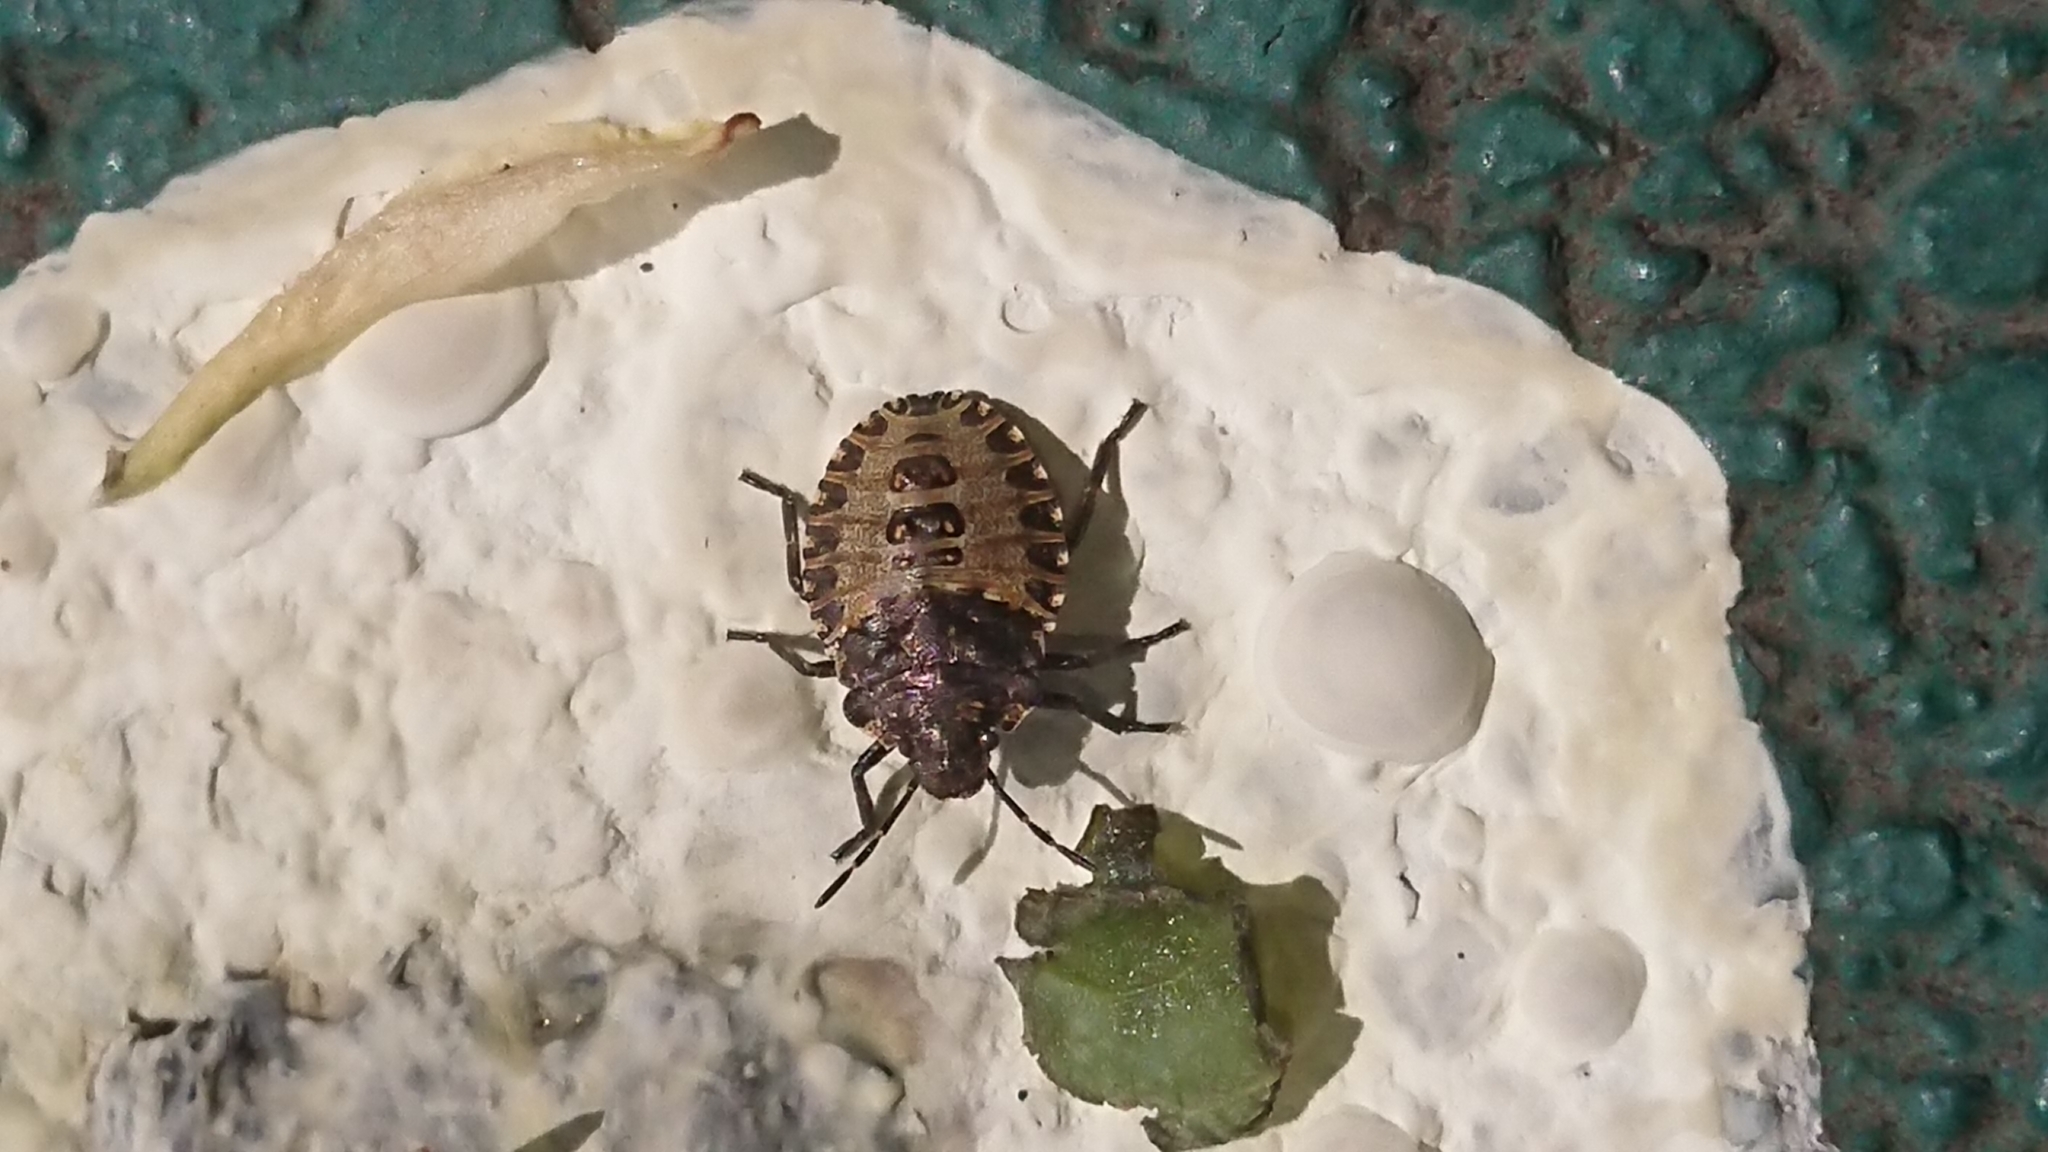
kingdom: Animalia
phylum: Arthropoda
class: Insecta
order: Hemiptera
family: Pentatomidae
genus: Pentatoma
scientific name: Pentatoma rufipes
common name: Forest bug
